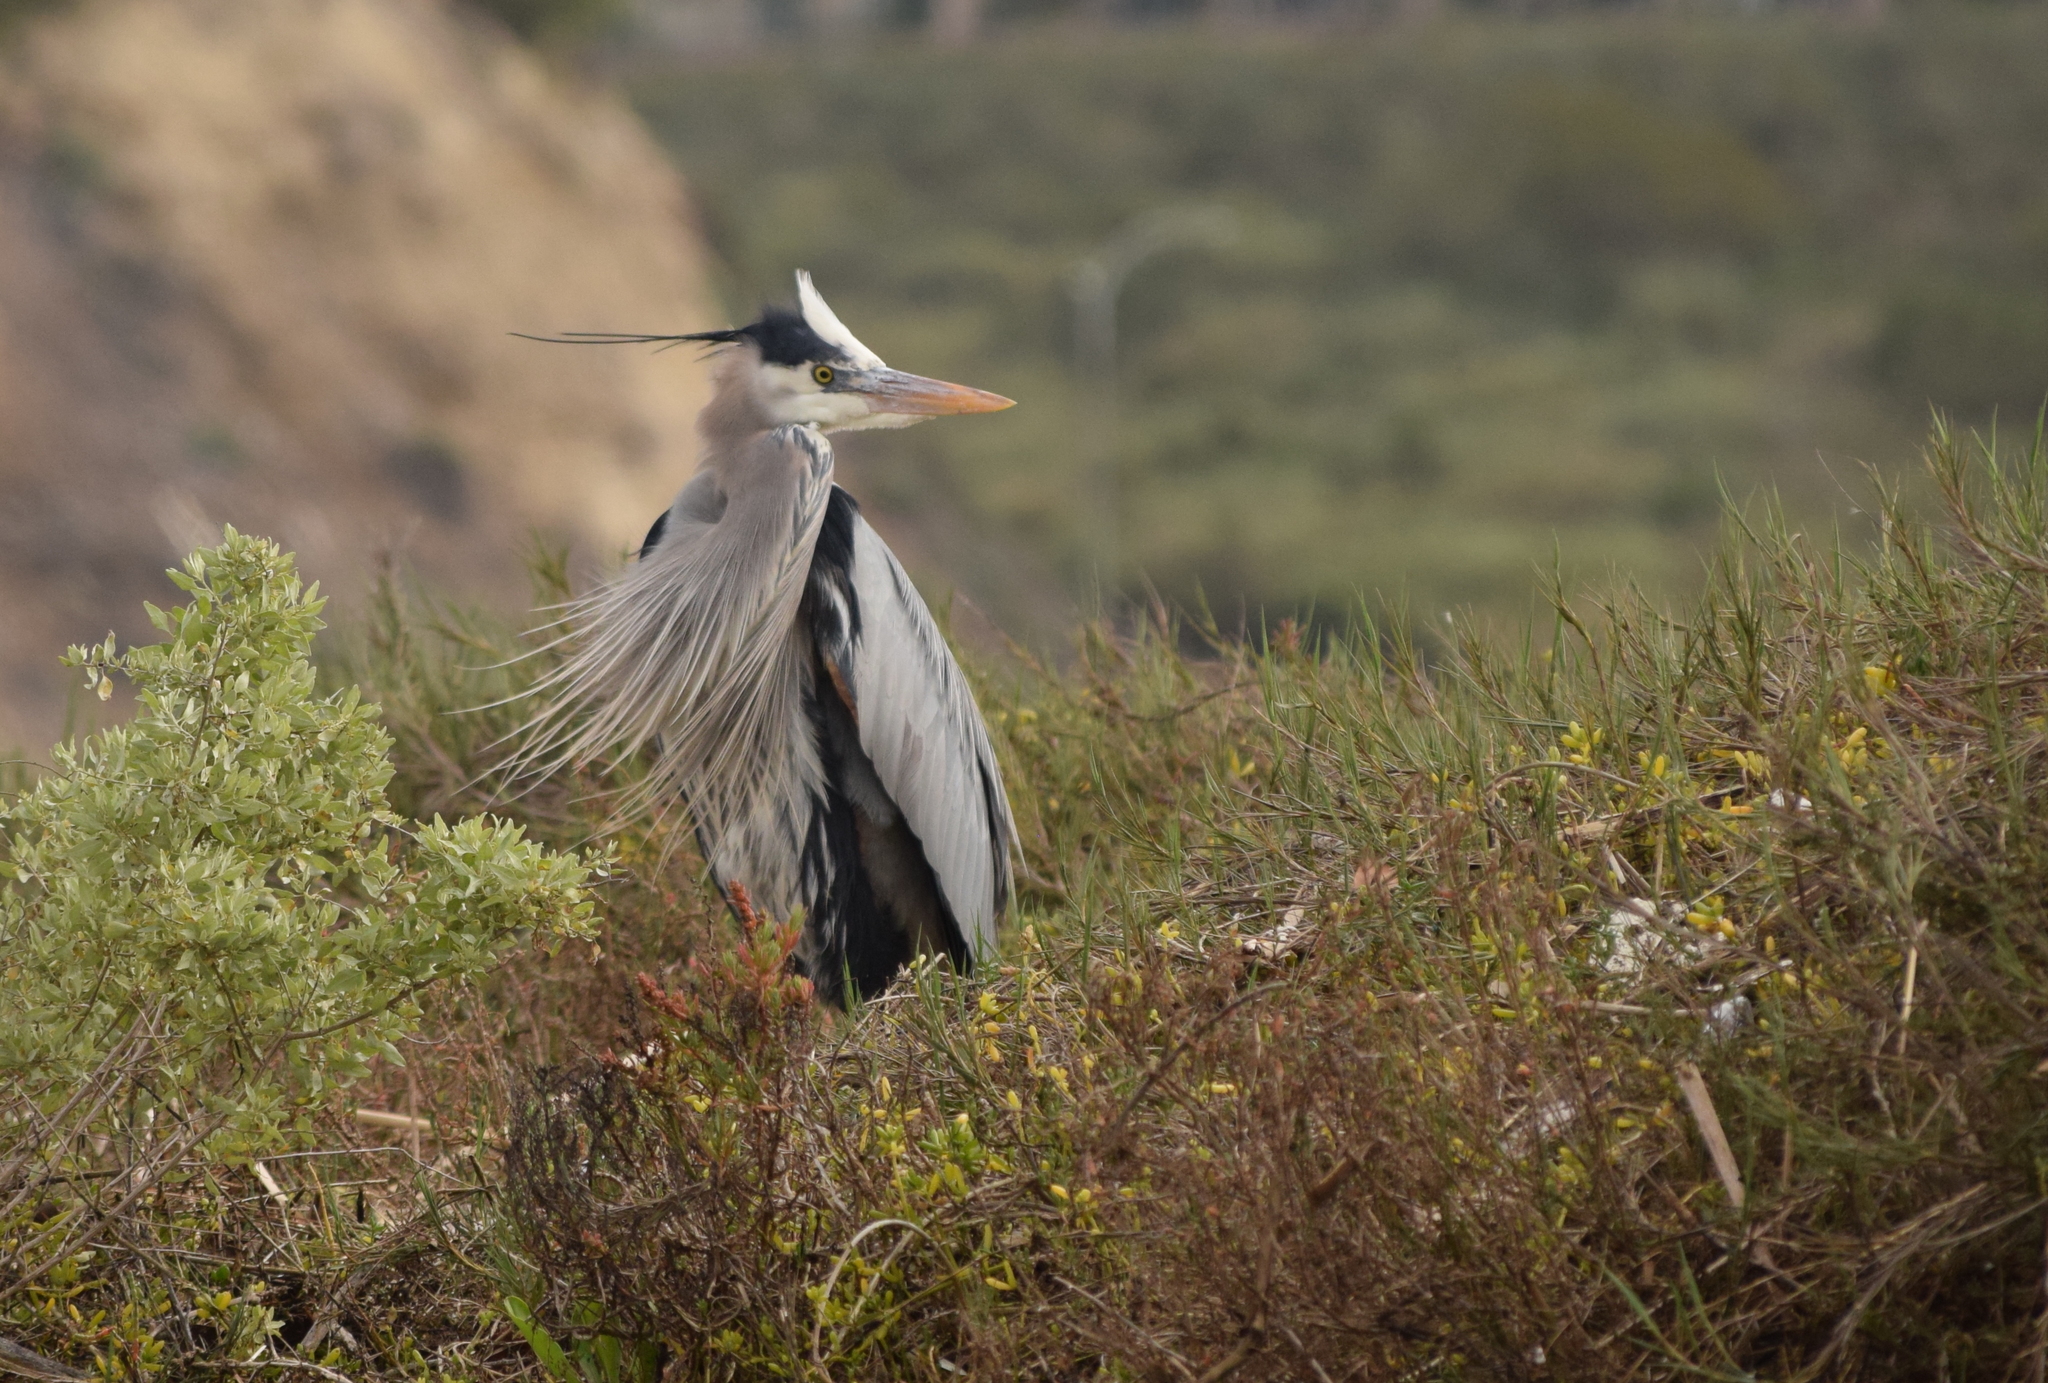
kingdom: Animalia
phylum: Chordata
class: Aves
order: Pelecaniformes
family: Ardeidae
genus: Ardea
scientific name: Ardea herodias
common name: Great blue heron
